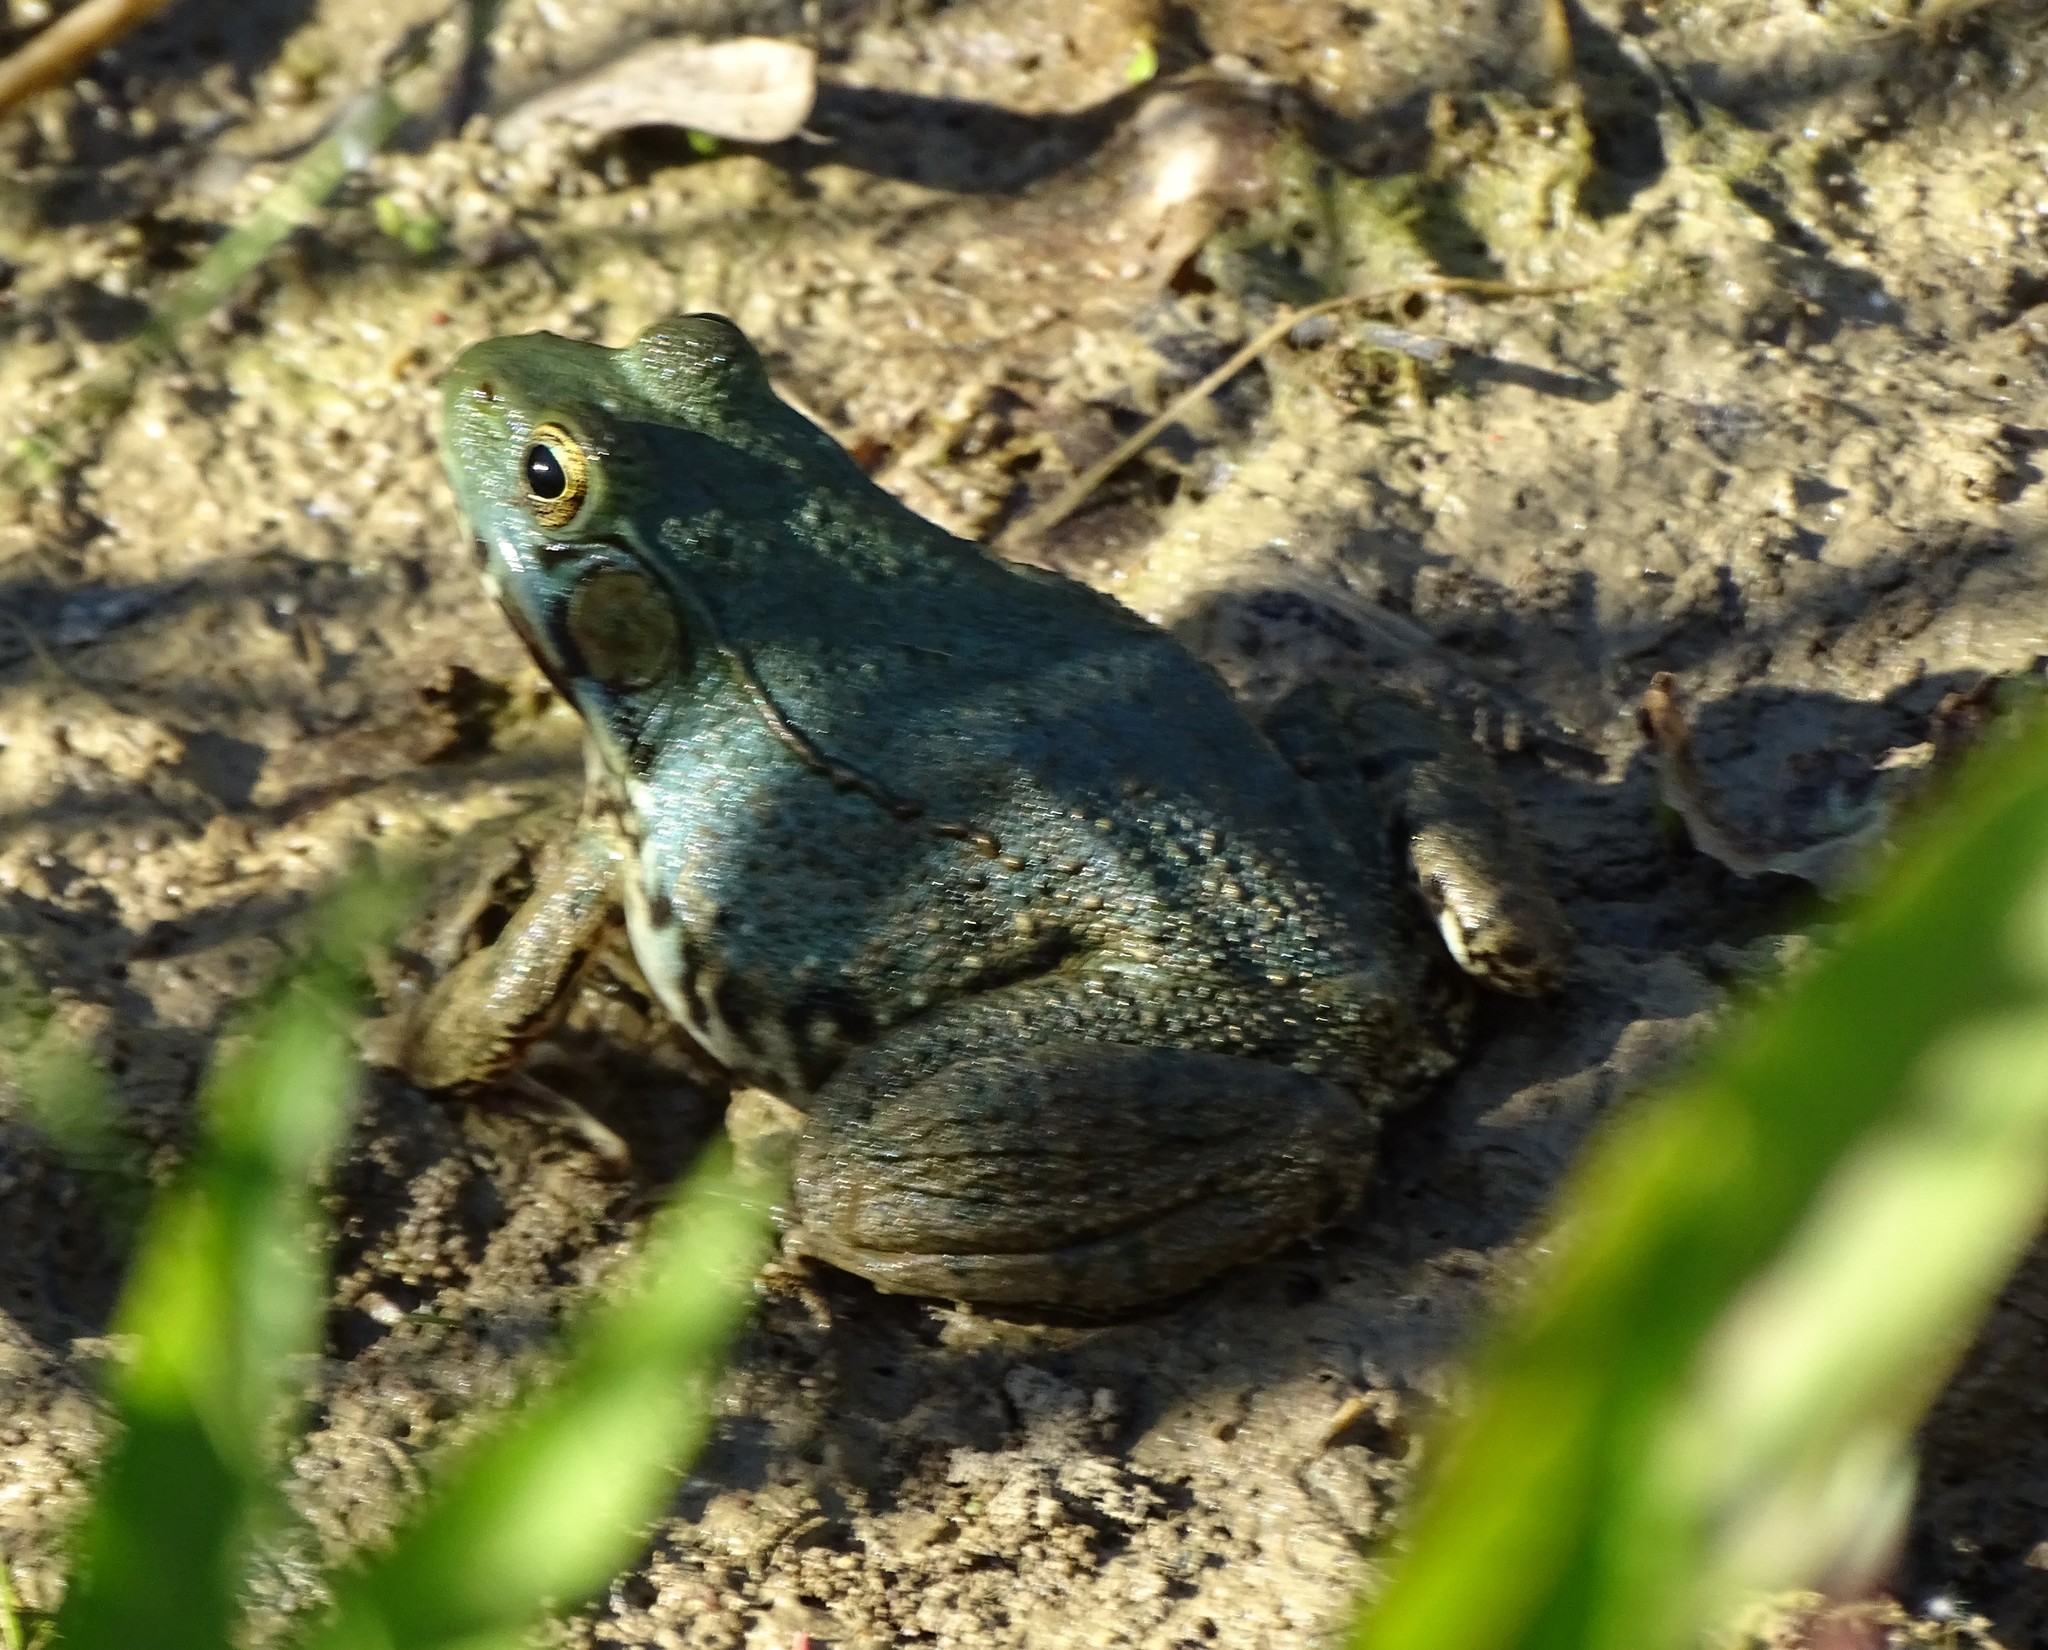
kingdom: Animalia
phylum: Chordata
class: Amphibia
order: Anura
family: Ranidae
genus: Lithobates
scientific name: Lithobates clamitans
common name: Green frog
